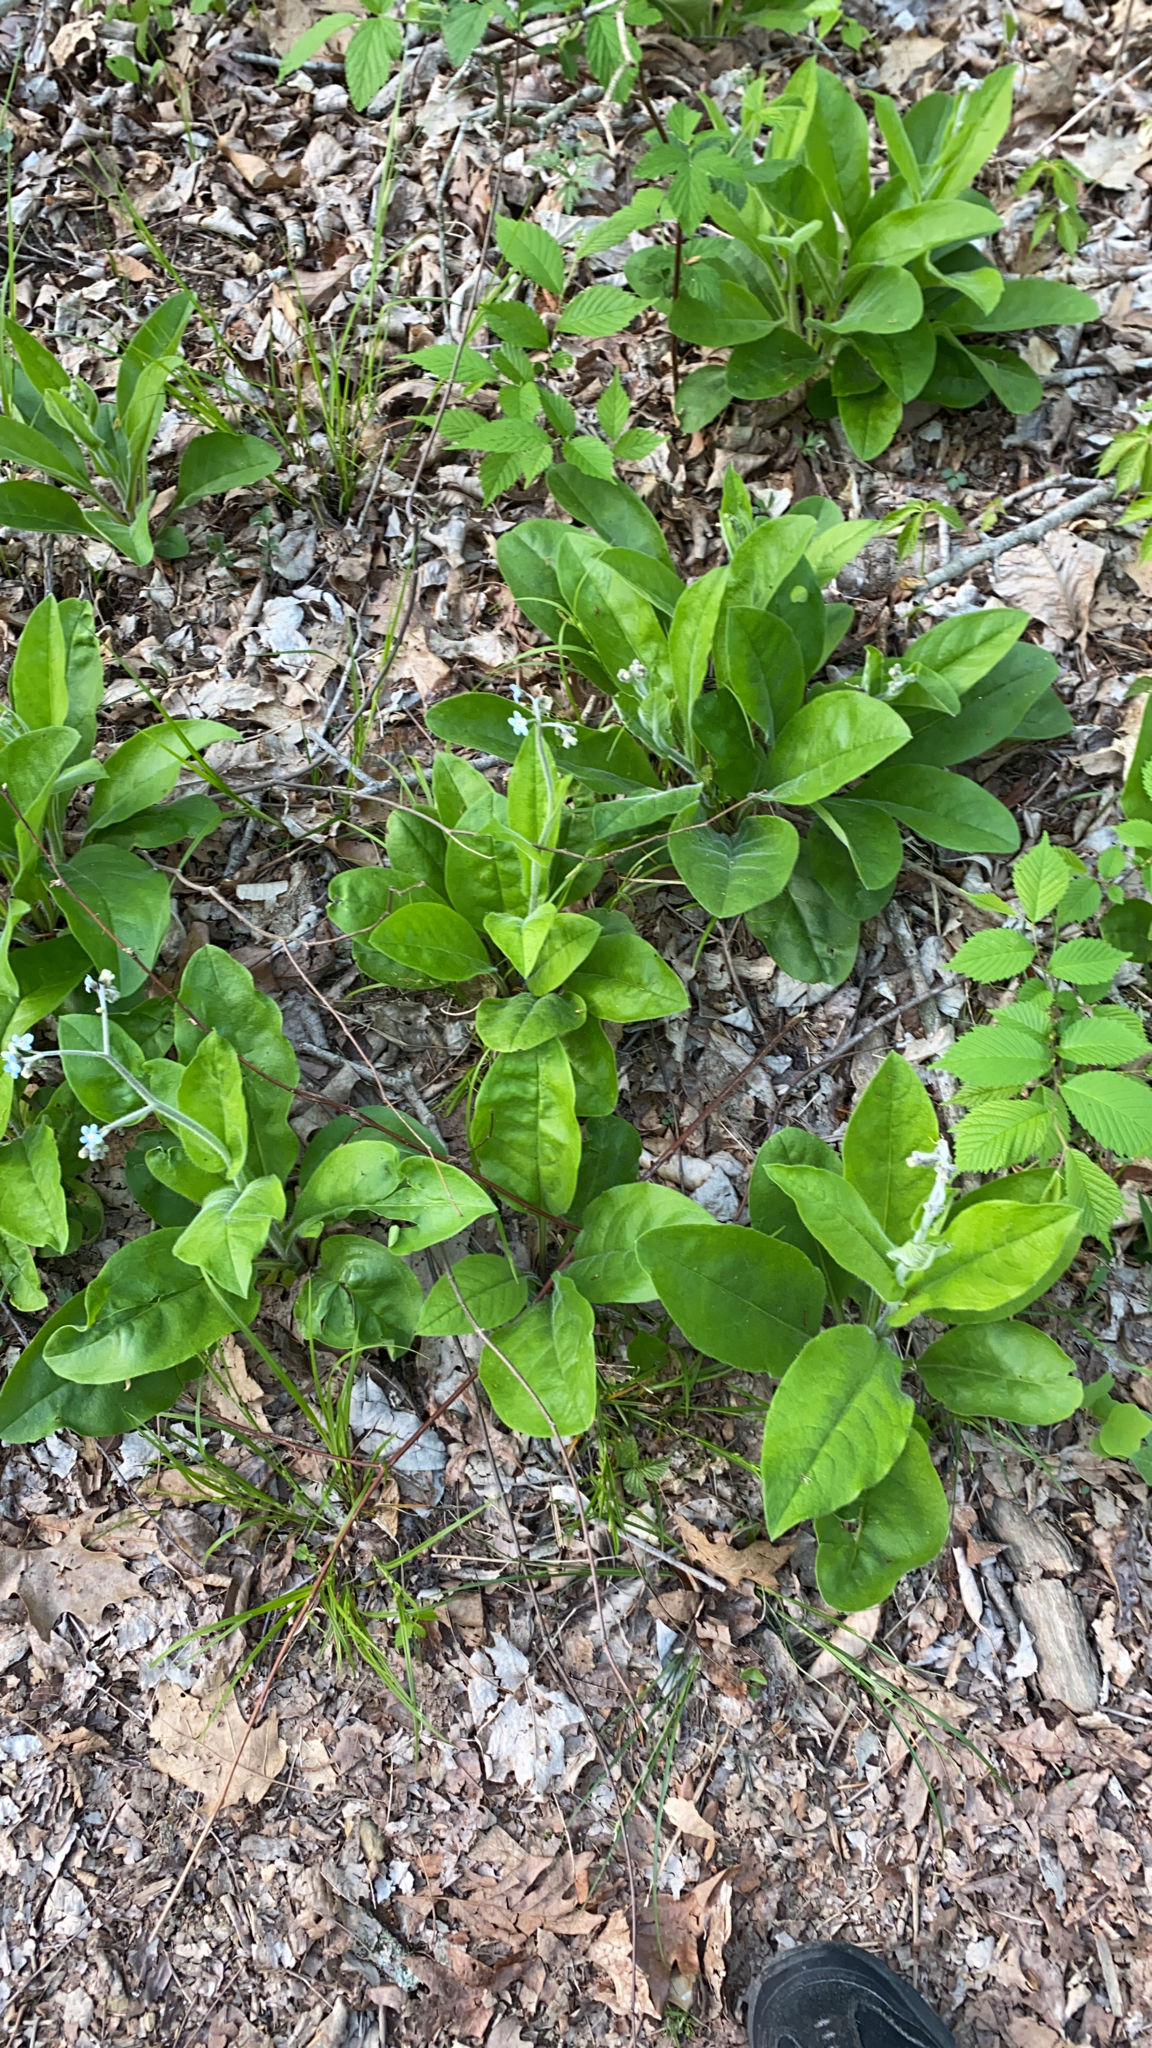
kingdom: Plantae
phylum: Tracheophyta
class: Magnoliopsida
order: Boraginales
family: Boraginaceae
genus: Andersonglossum
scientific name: Andersonglossum virginianum
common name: Wild comfrey
